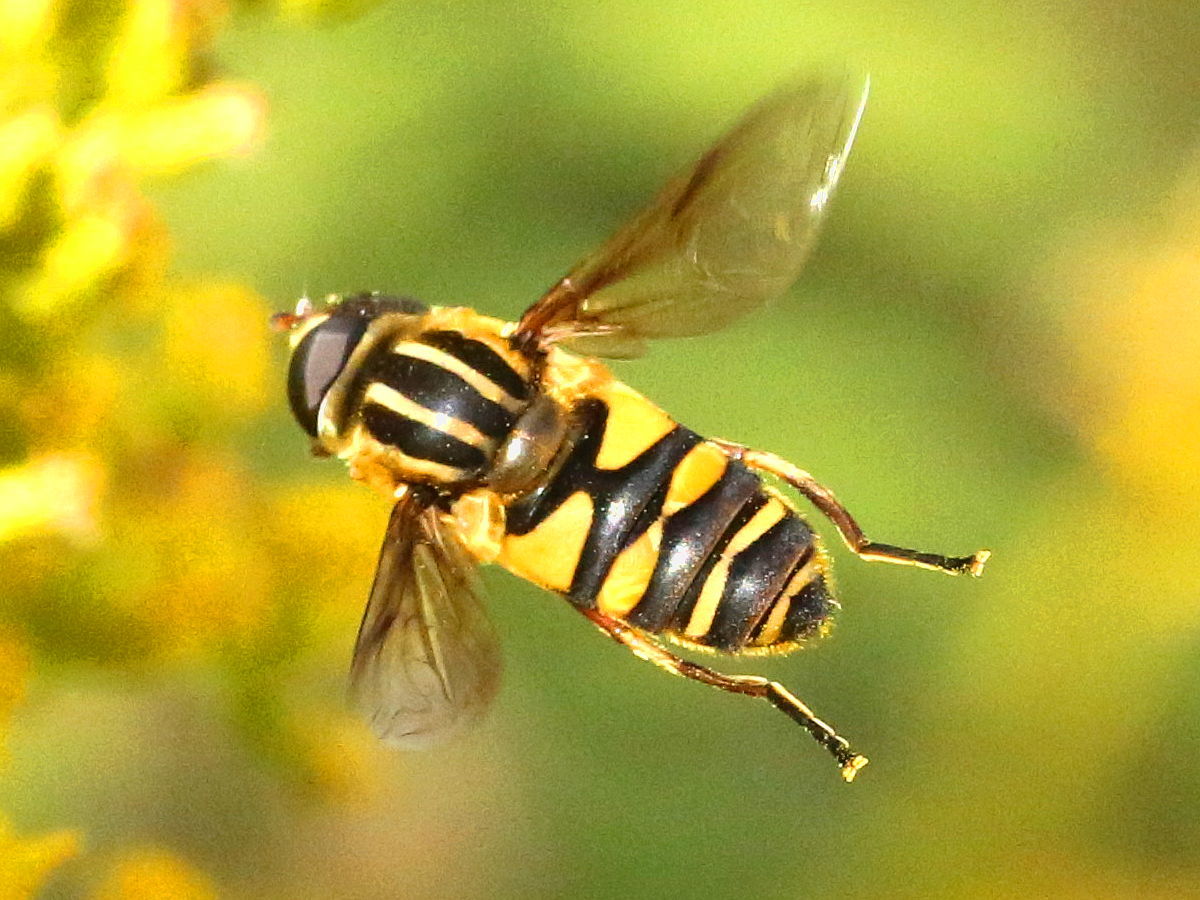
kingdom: Animalia
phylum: Arthropoda
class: Insecta
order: Diptera
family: Syrphidae
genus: Helophilus
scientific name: Helophilus fasciatus
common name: Narrow-headed marsh fly
